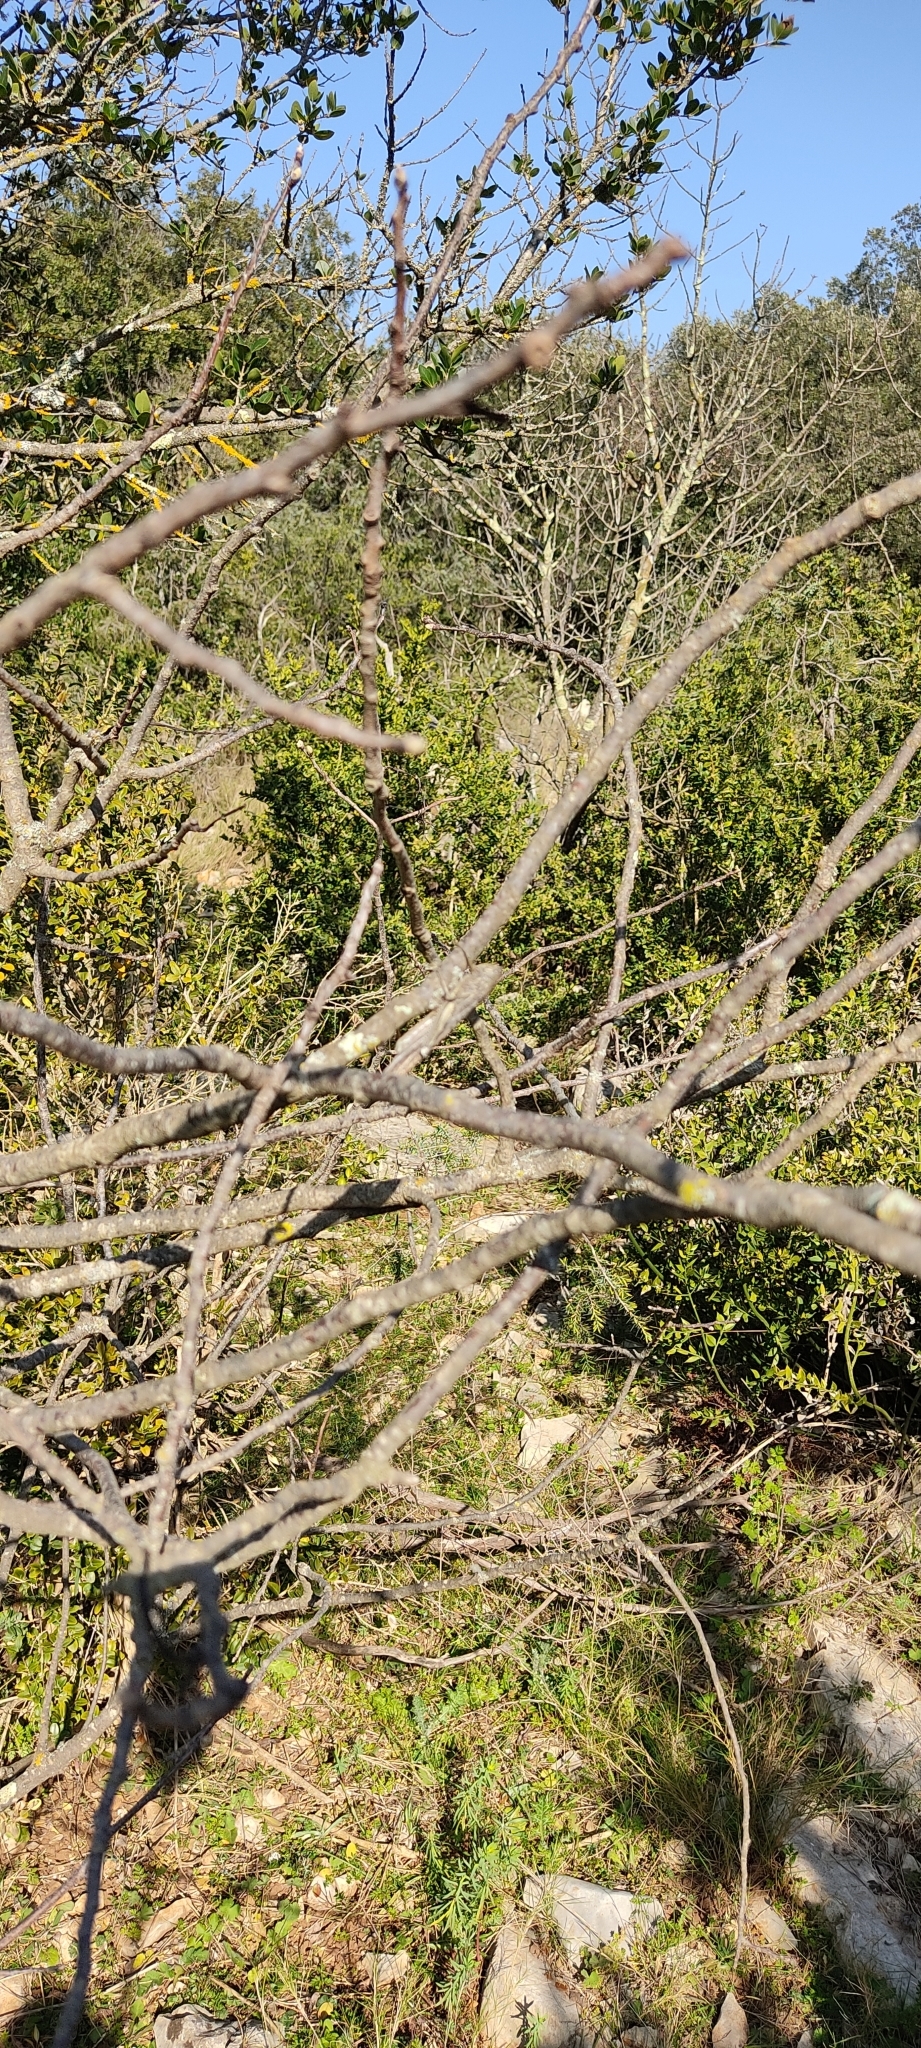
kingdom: Animalia
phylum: Arthropoda
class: Insecta
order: Orthoptera
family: Acrididae
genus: Anacridium
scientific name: Anacridium aegyptium
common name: Egyptian grasshopper
